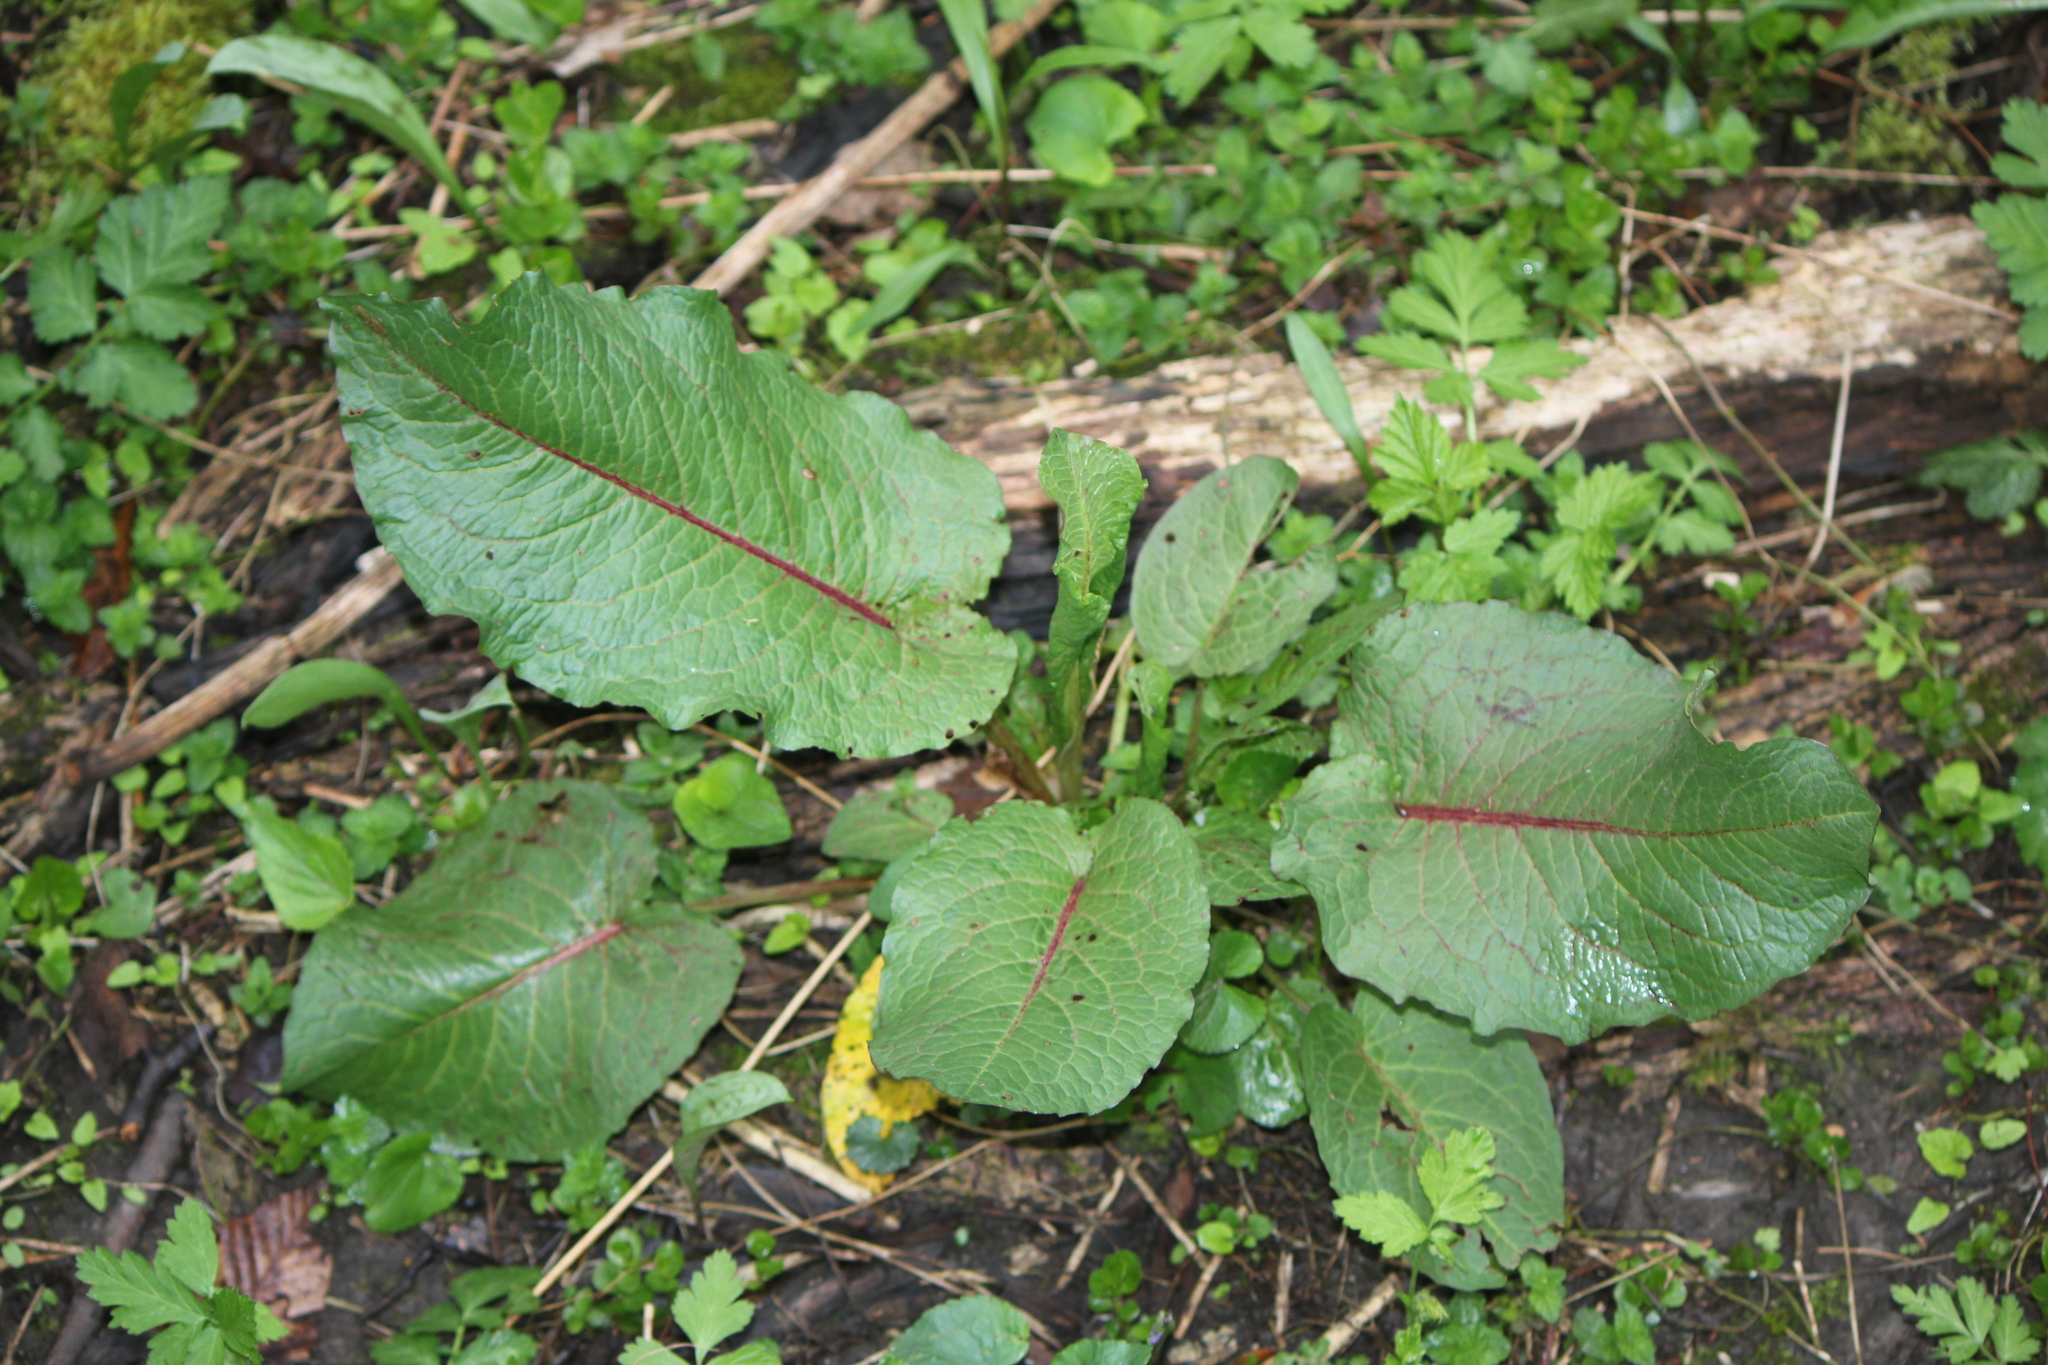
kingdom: Plantae
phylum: Tracheophyta
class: Magnoliopsida
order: Caryophyllales
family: Polygonaceae
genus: Rumex
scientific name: Rumex obtusifolius
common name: Bitter dock
